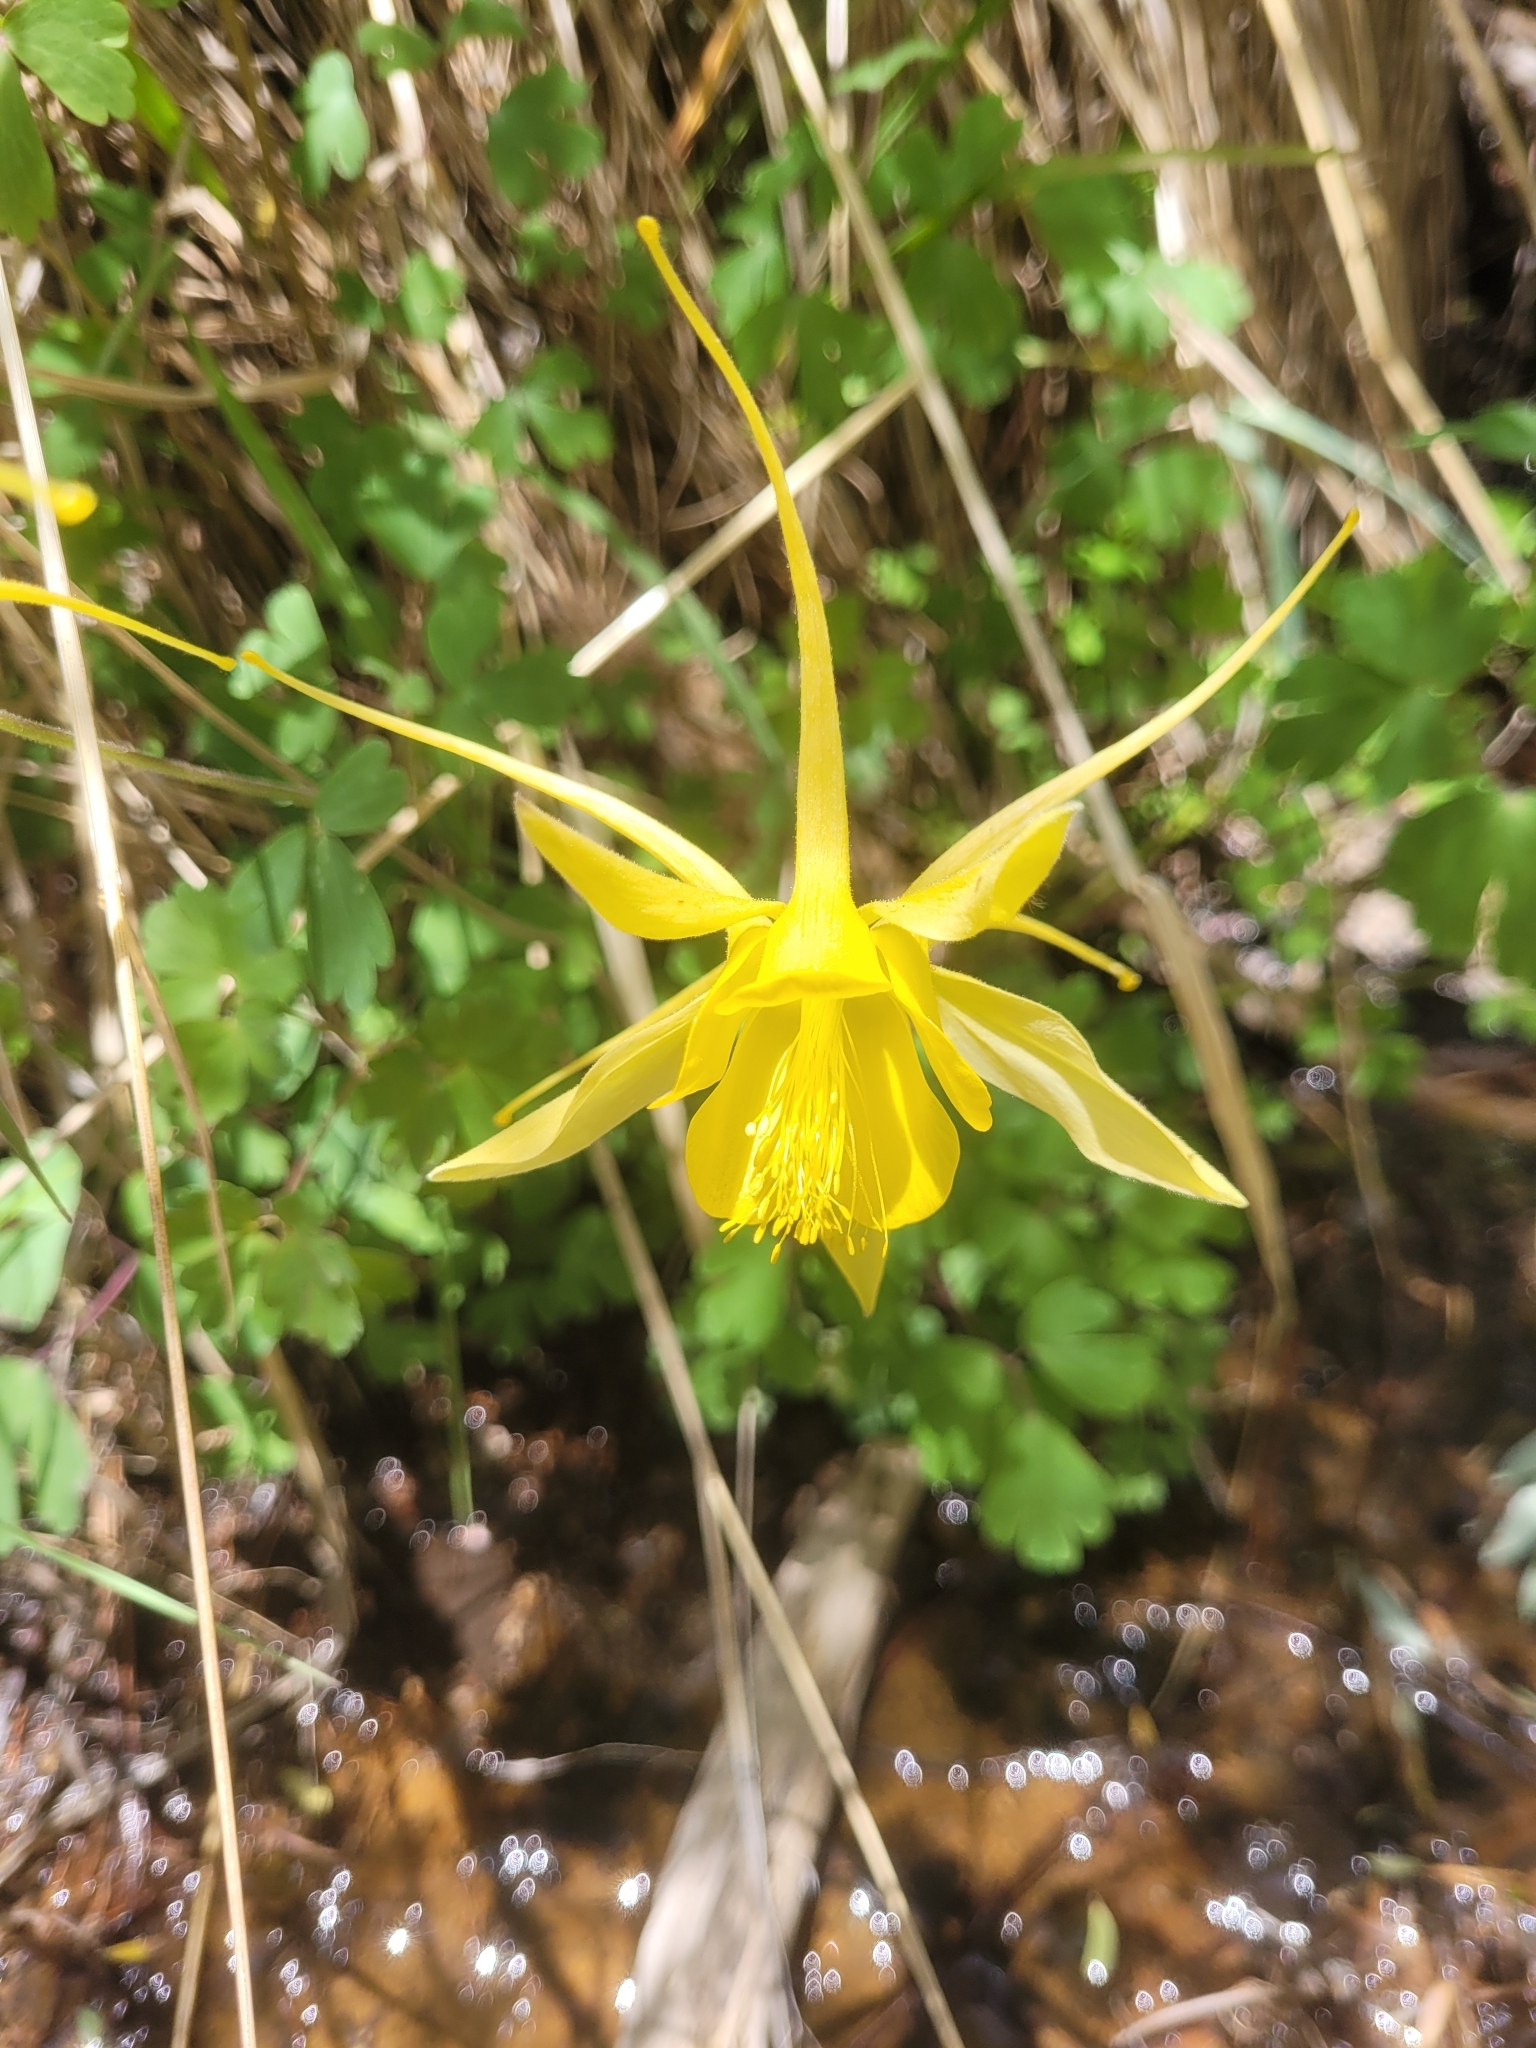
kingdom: Plantae
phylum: Tracheophyta
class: Magnoliopsida
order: Ranunculales
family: Ranunculaceae
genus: Aquilegia
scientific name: Aquilegia chrysantha
